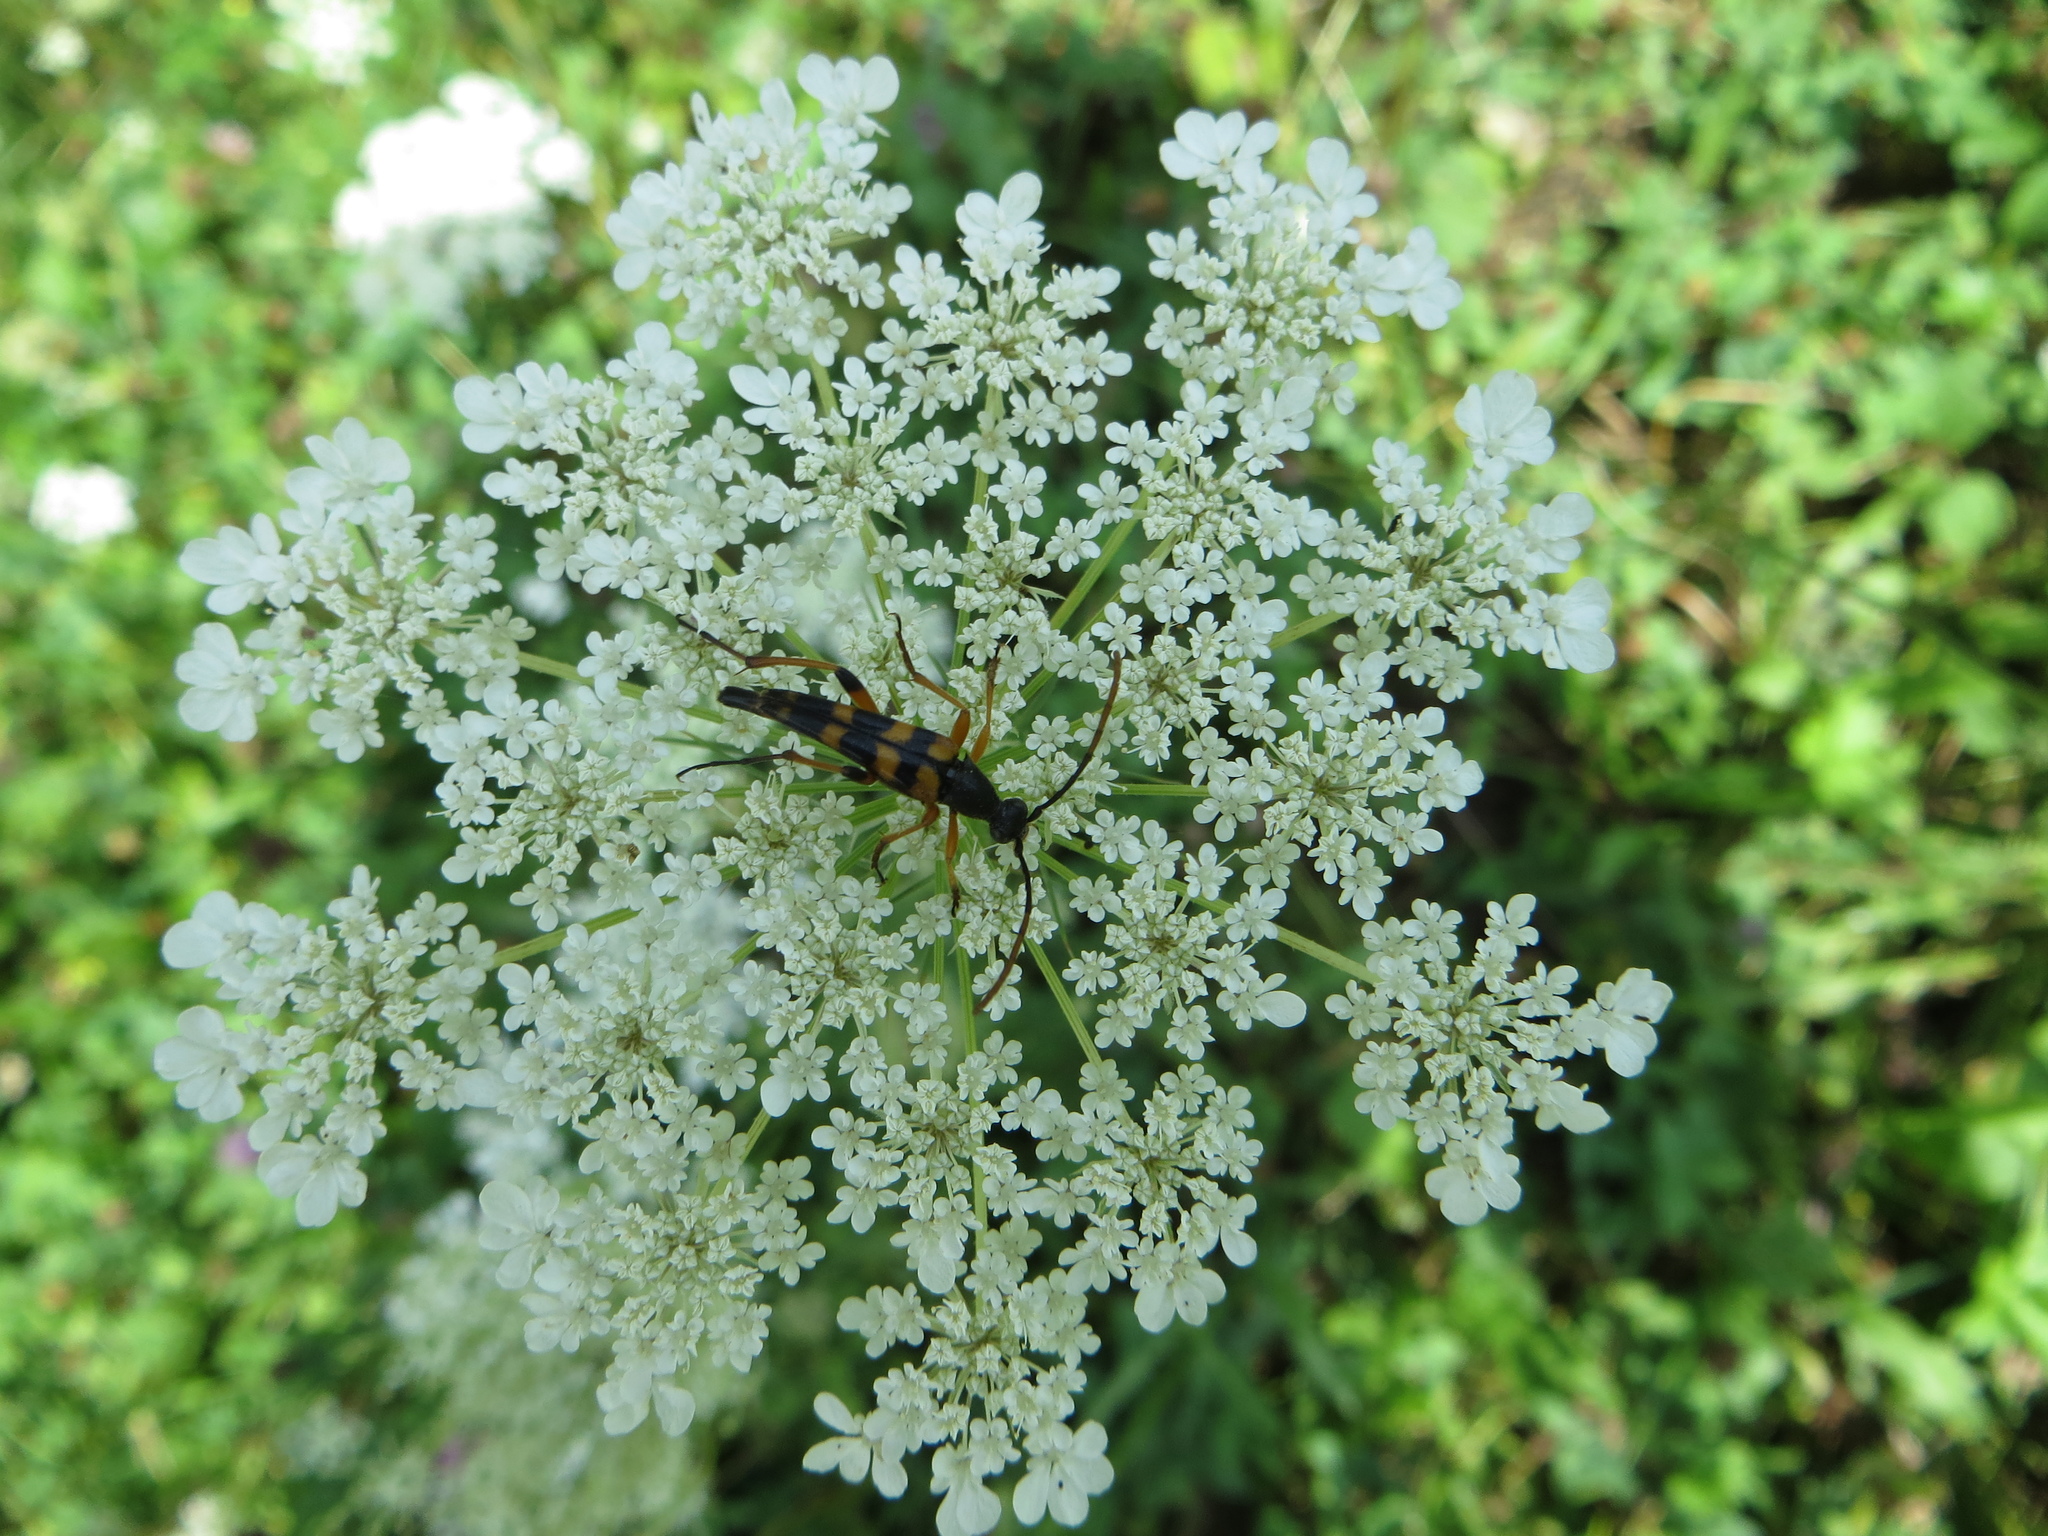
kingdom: Animalia
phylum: Arthropoda
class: Insecta
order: Coleoptera
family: Cerambycidae
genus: Strangalia
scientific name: Strangalia attenuata
